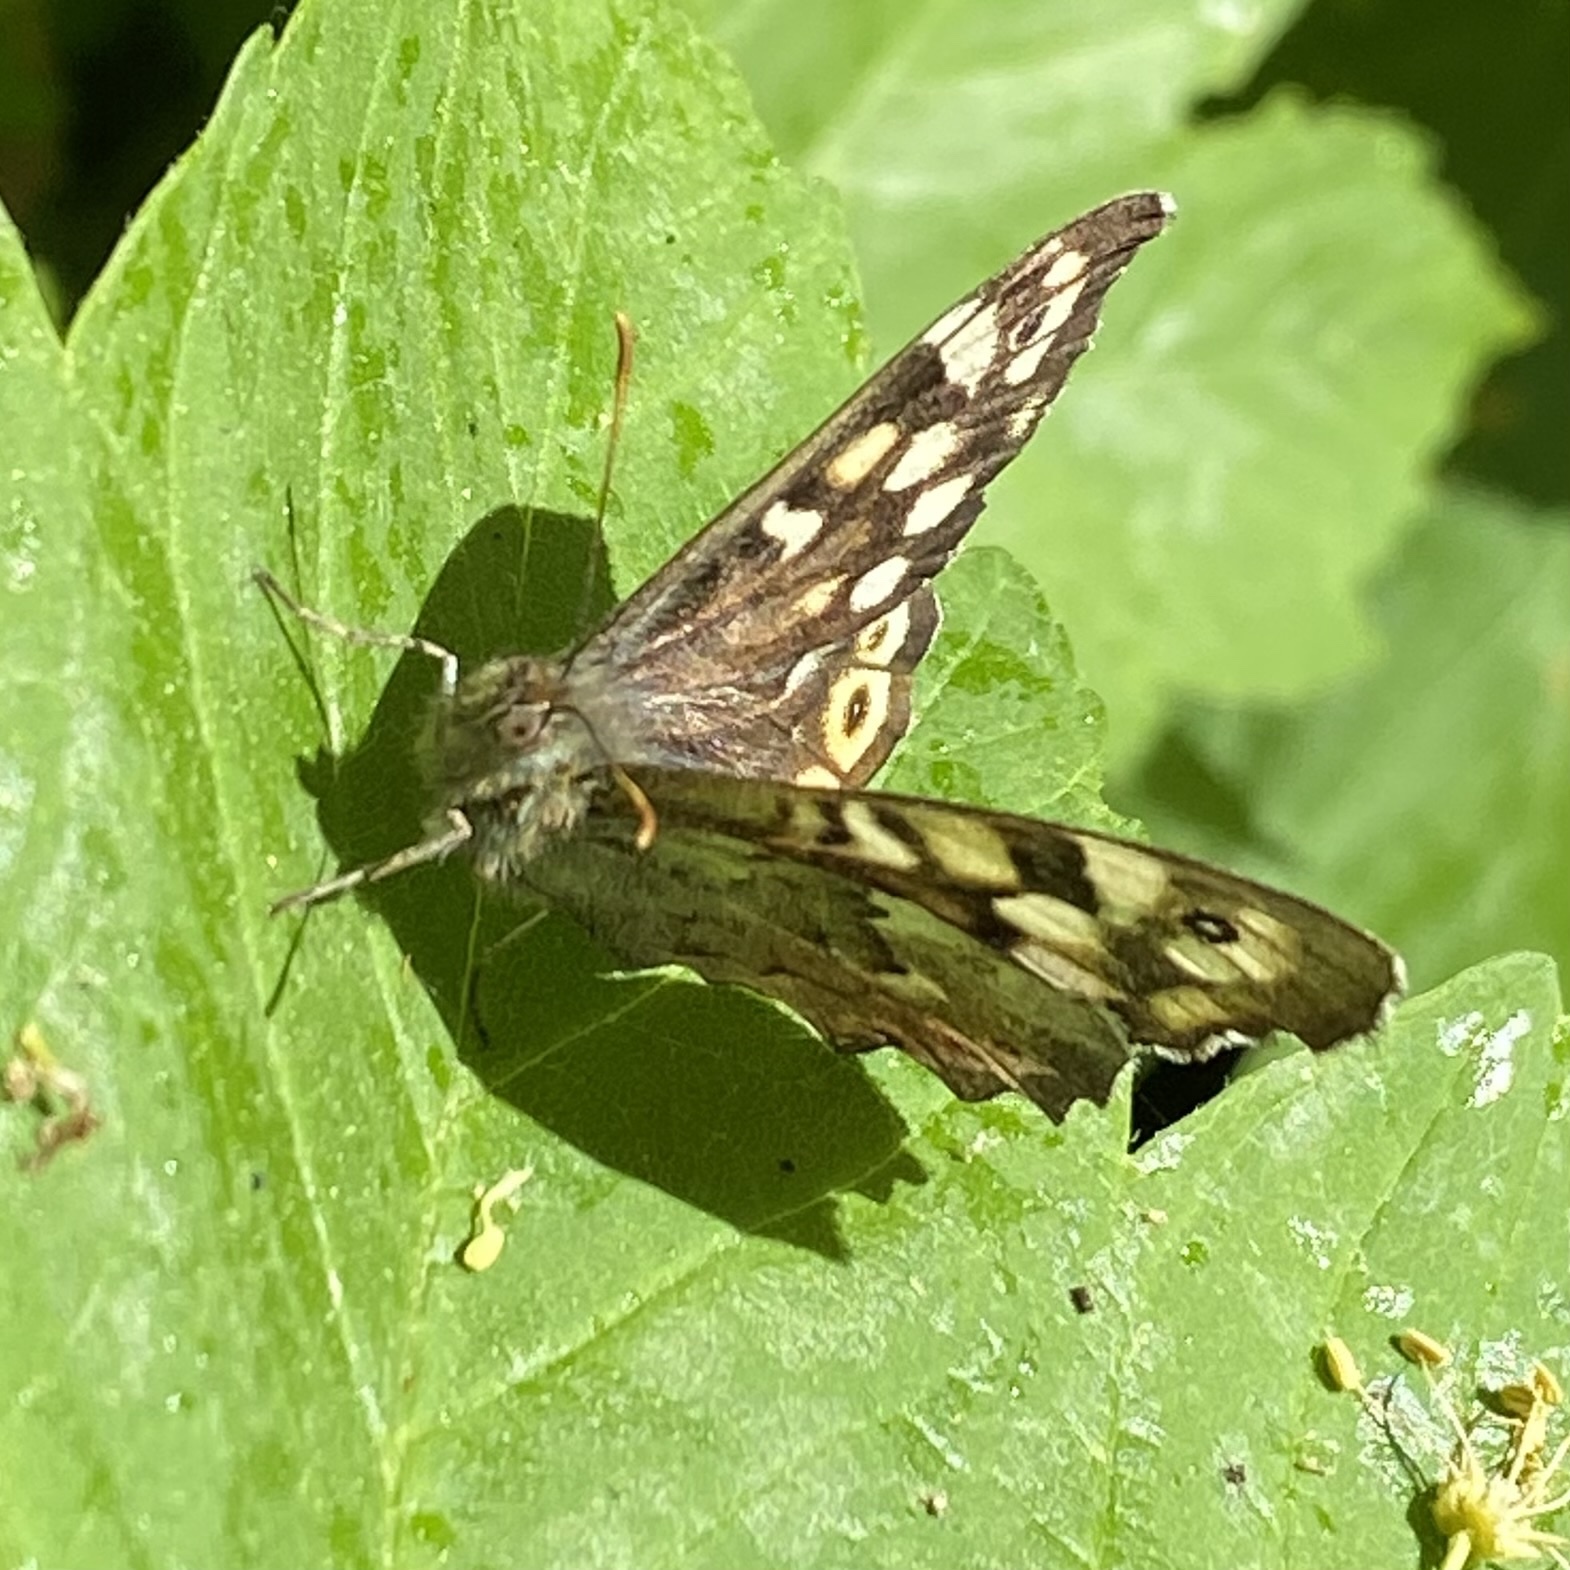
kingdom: Animalia
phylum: Arthropoda
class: Insecta
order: Lepidoptera
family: Nymphalidae
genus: Pararge
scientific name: Pararge aegeria
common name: Speckled wood
